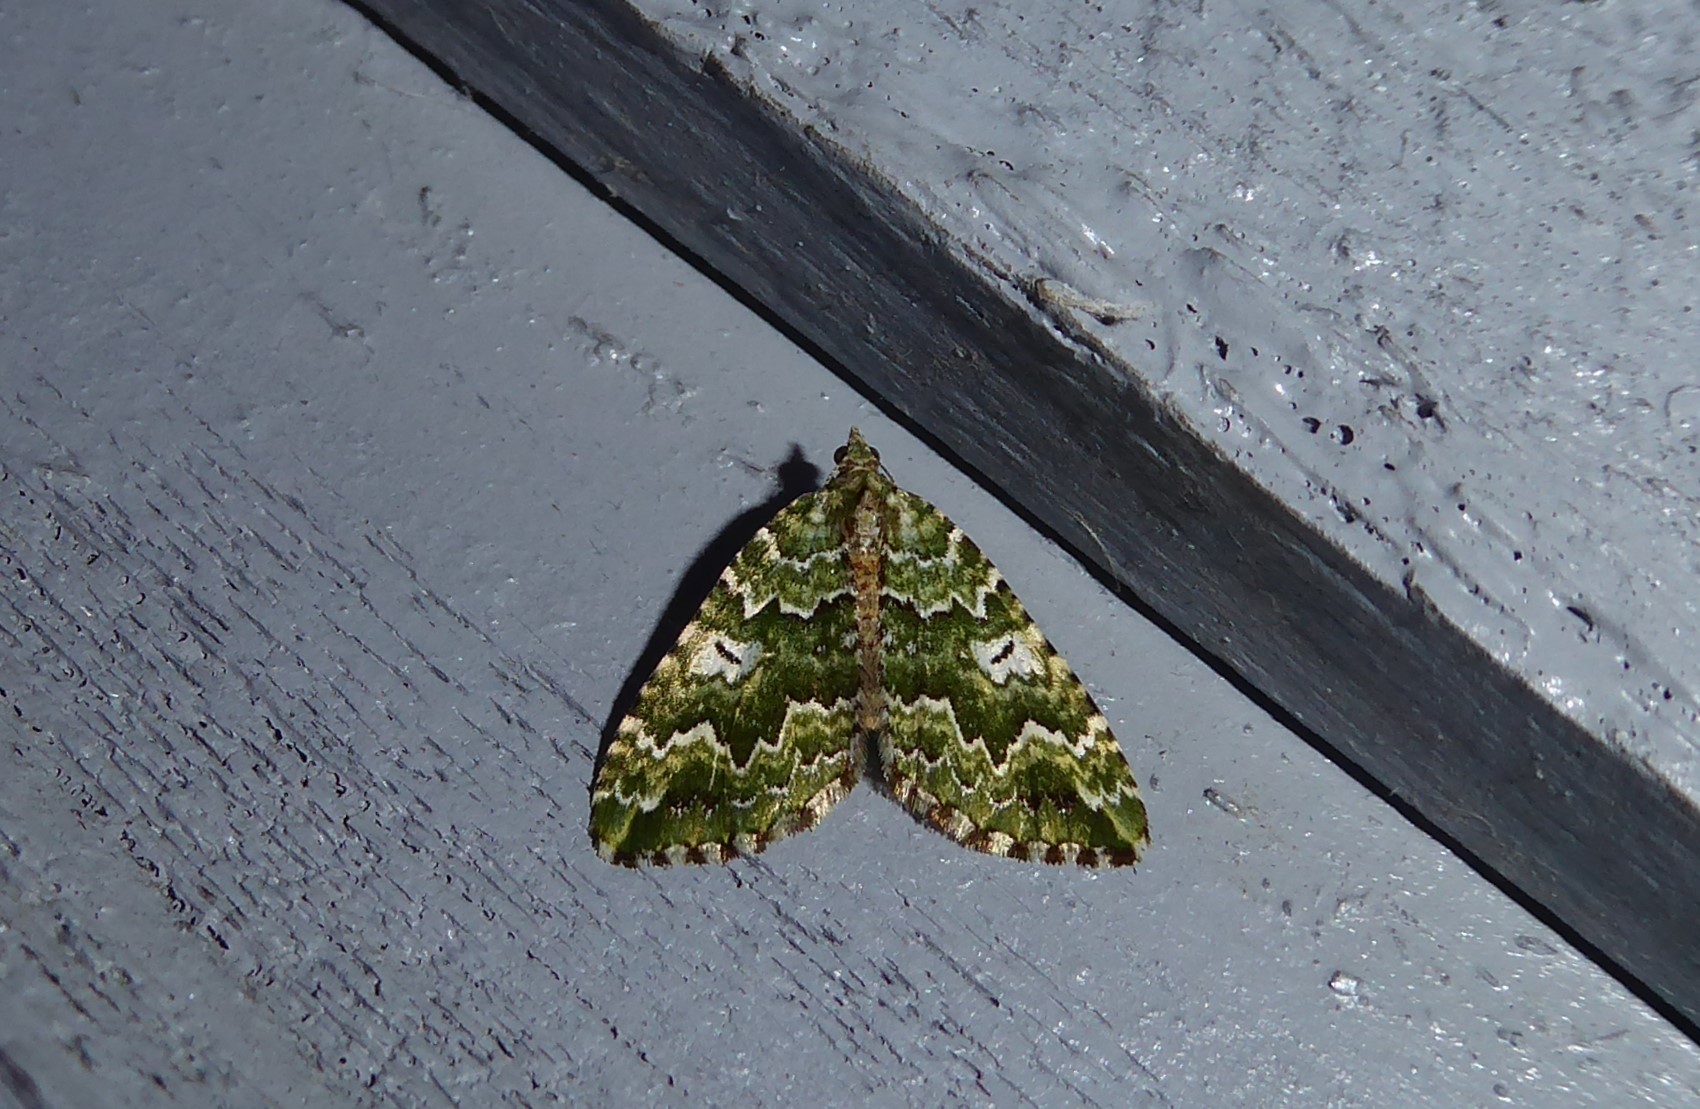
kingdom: Animalia
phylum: Arthropoda
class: Insecta
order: Lepidoptera
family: Geometridae
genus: Asaphodes
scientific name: Asaphodes beata
